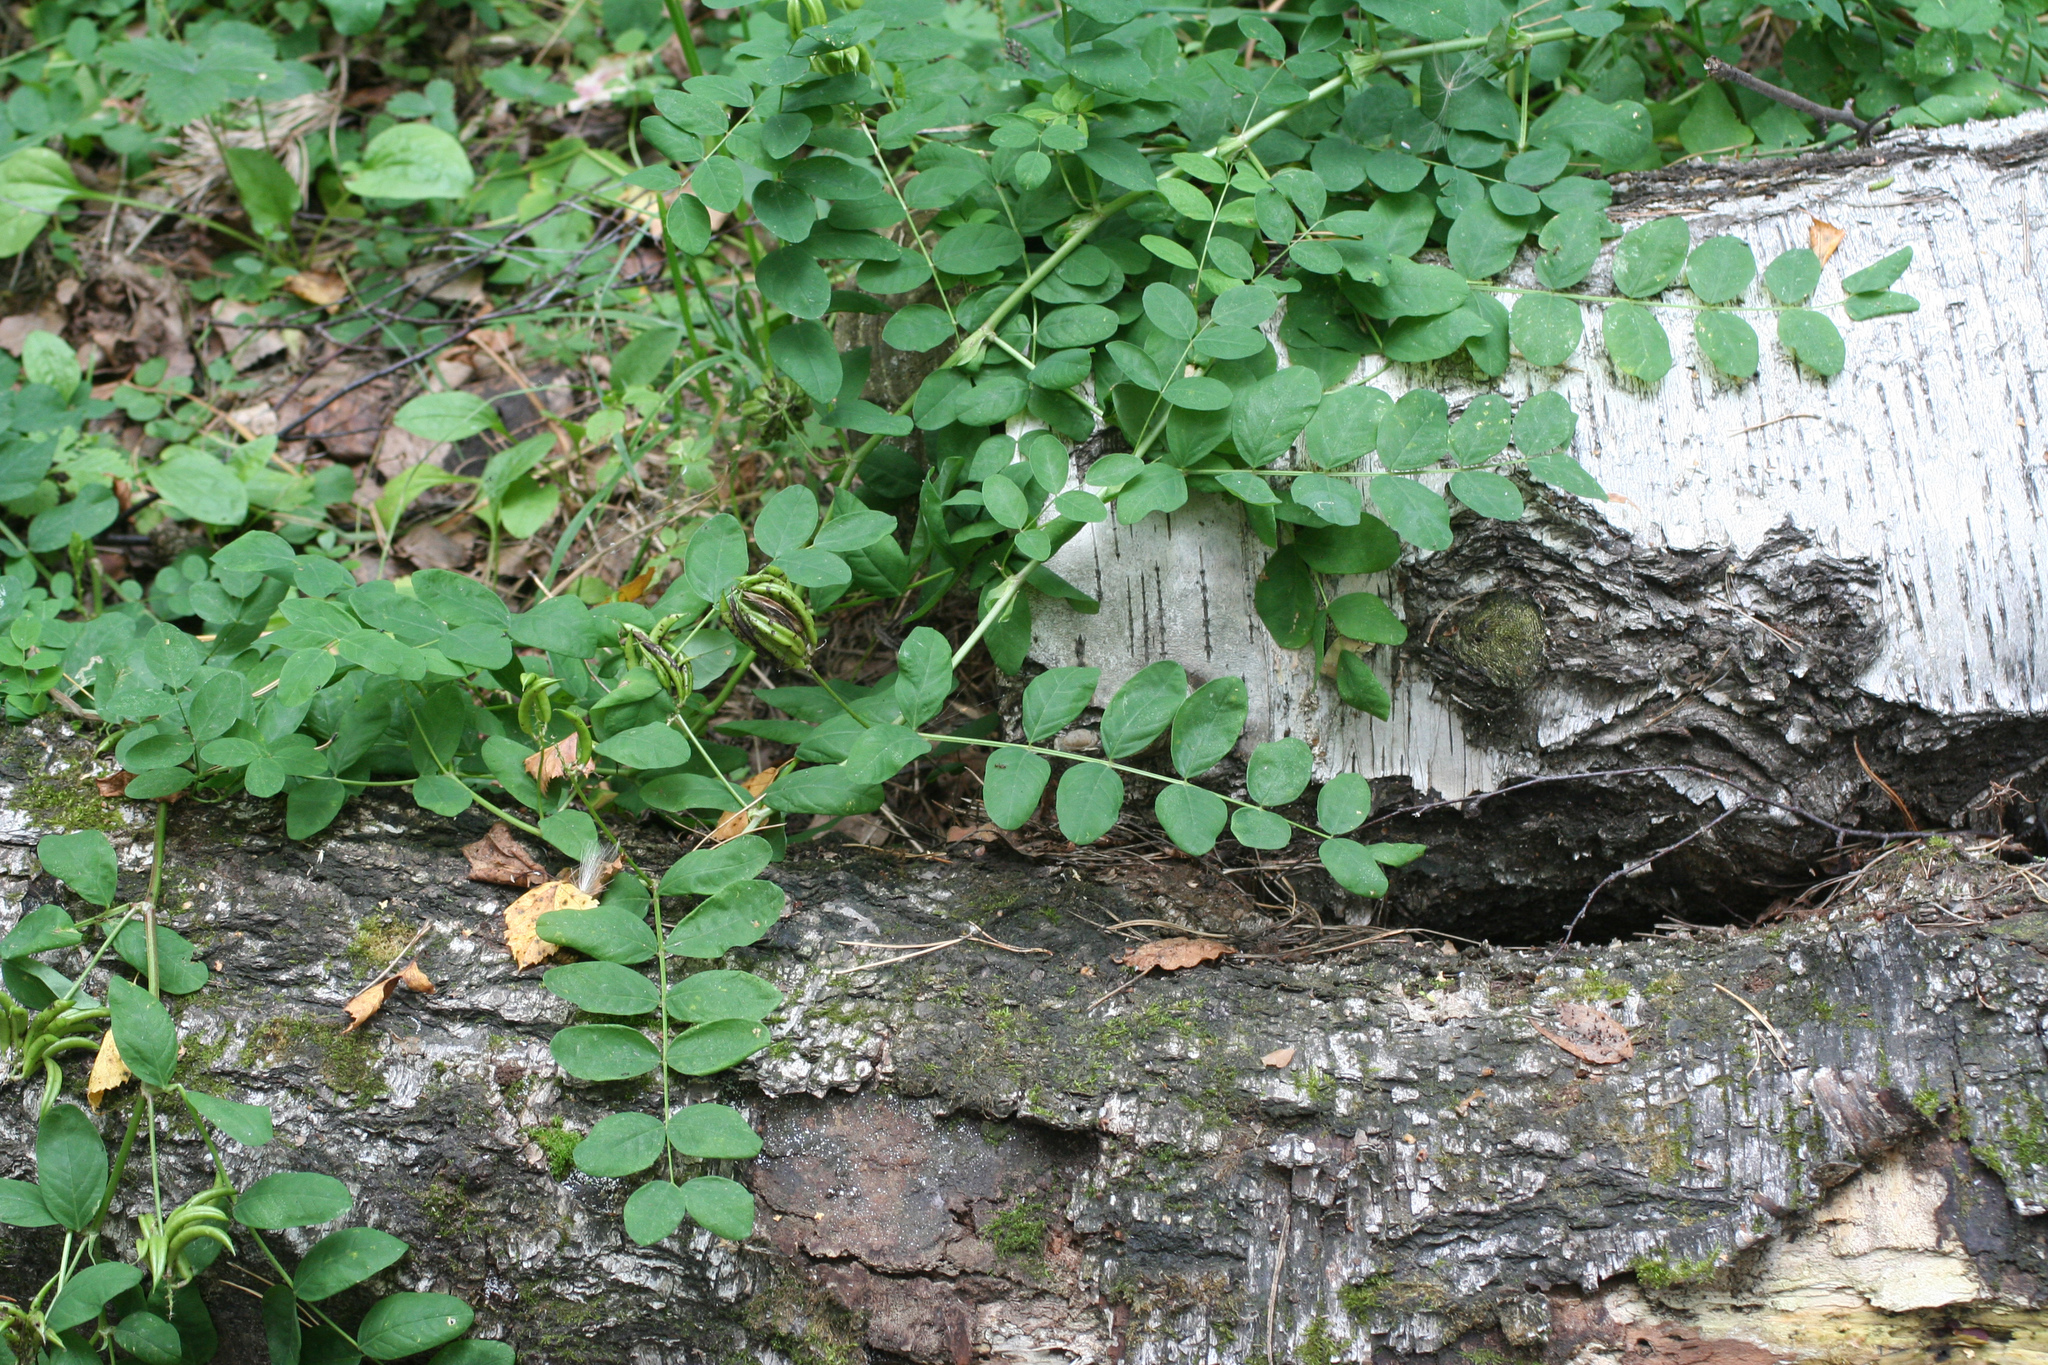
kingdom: Plantae
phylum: Tracheophyta
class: Magnoliopsida
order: Fabales
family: Fabaceae
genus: Astragalus
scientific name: Astragalus glycyphyllos
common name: Wild liquorice
